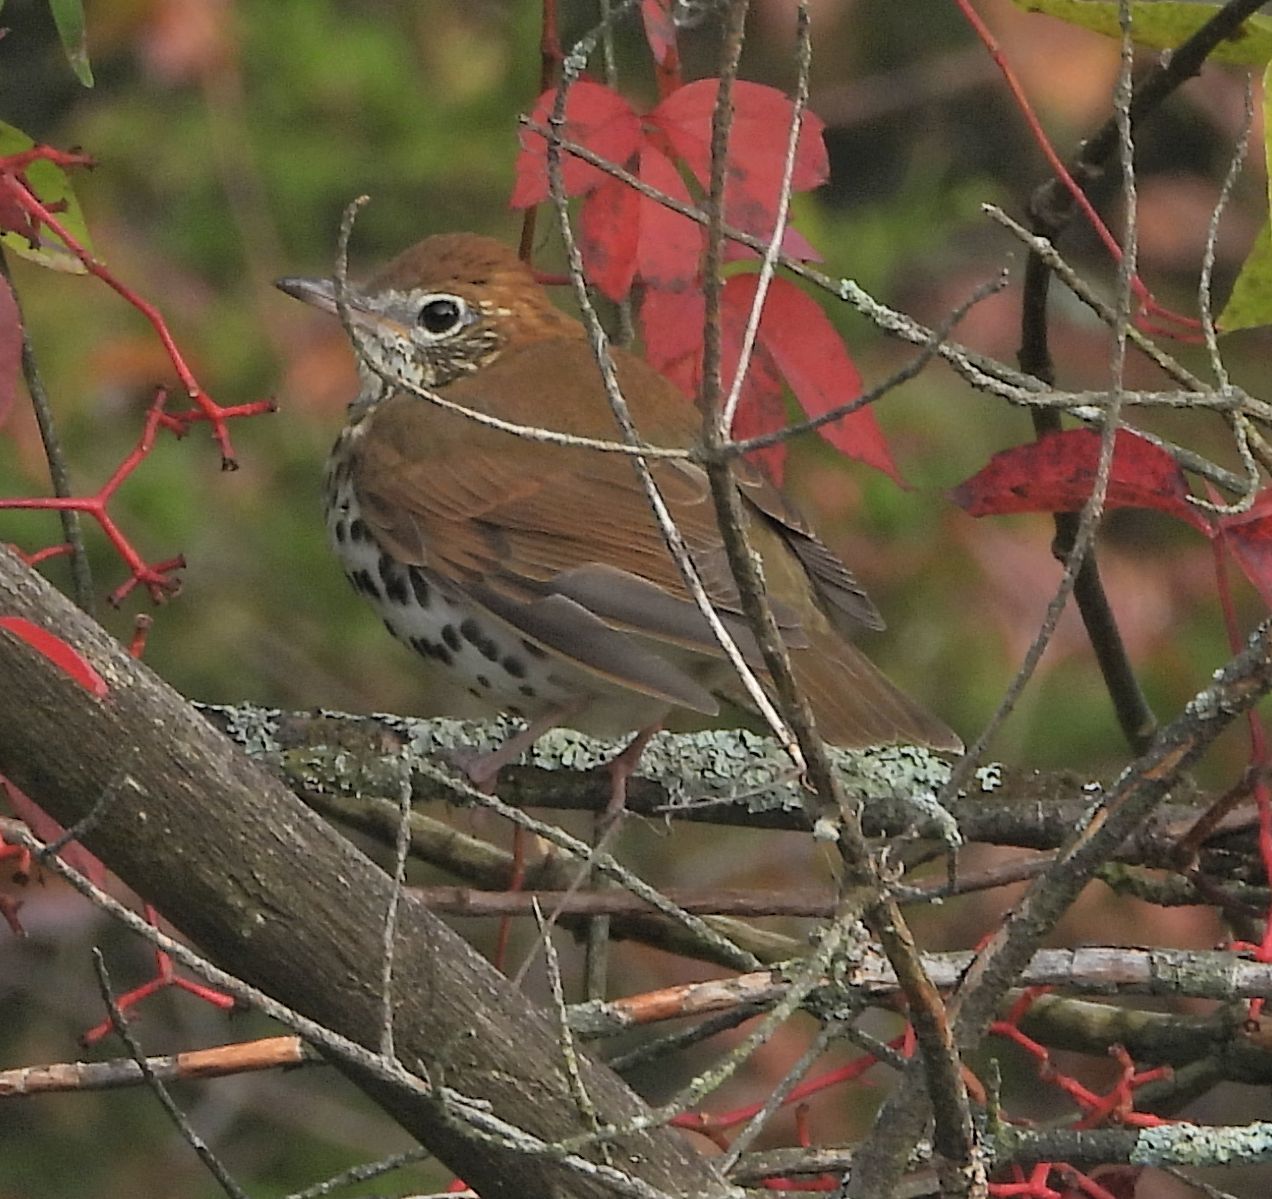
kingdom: Animalia
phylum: Chordata
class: Aves
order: Passeriformes
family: Turdidae
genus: Hylocichla
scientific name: Hylocichla mustelina
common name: Wood thrush
